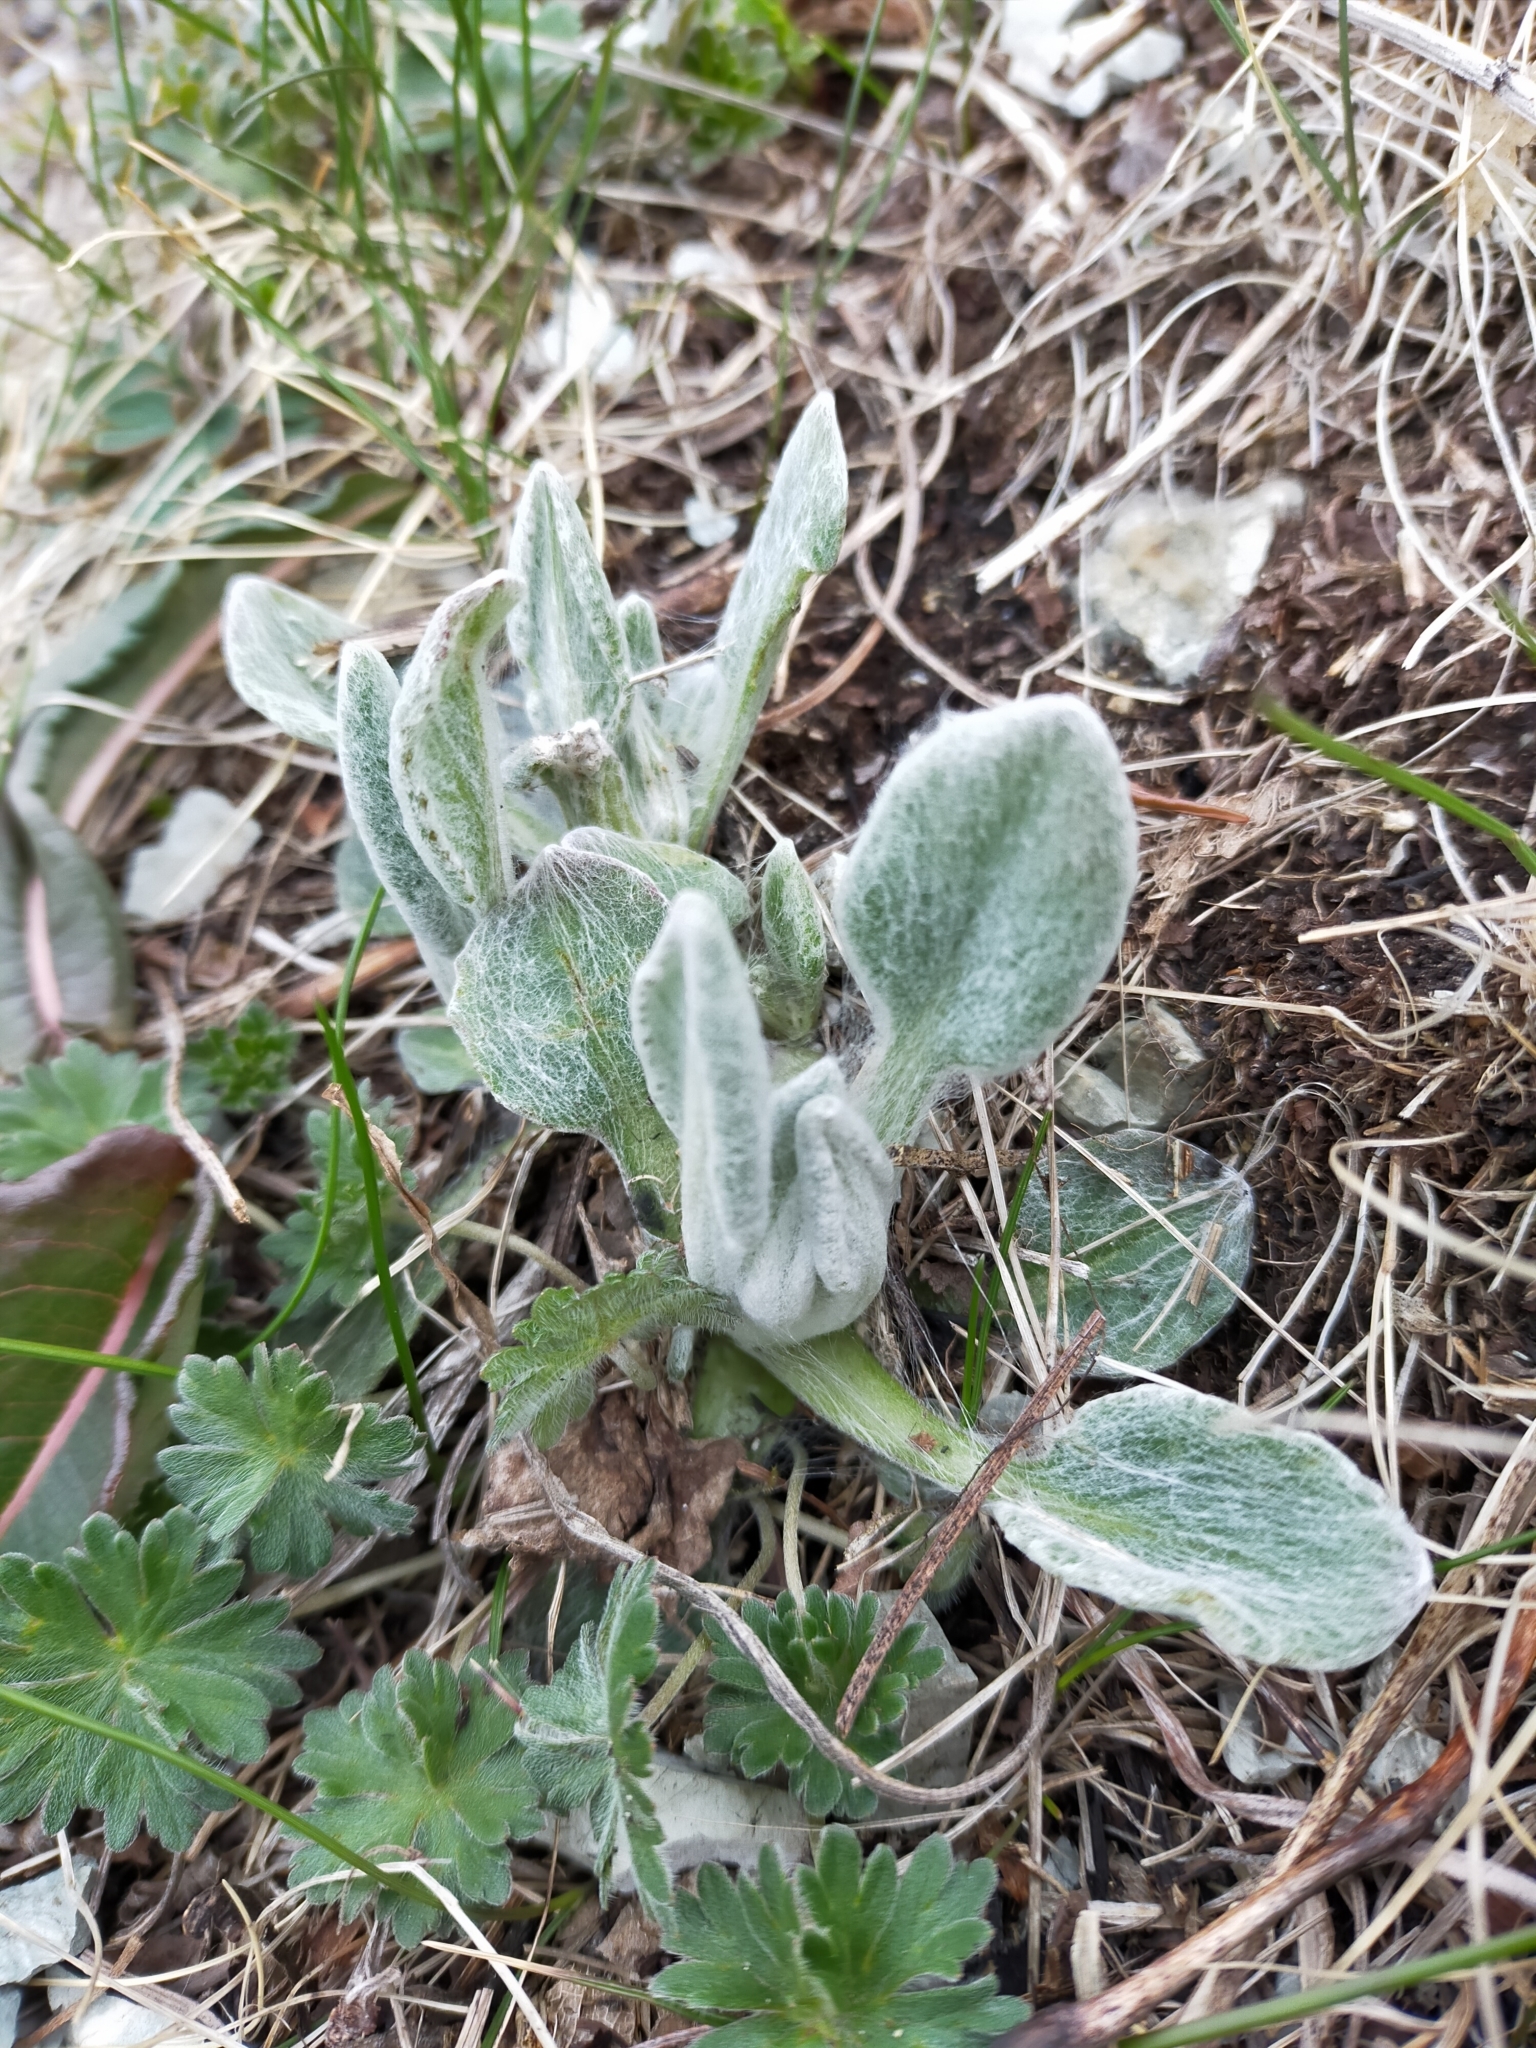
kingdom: Plantae
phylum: Tracheophyta
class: Magnoliopsida
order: Asterales
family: Asteraceae
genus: Tephroseris
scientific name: Tephroseris subscaposa
